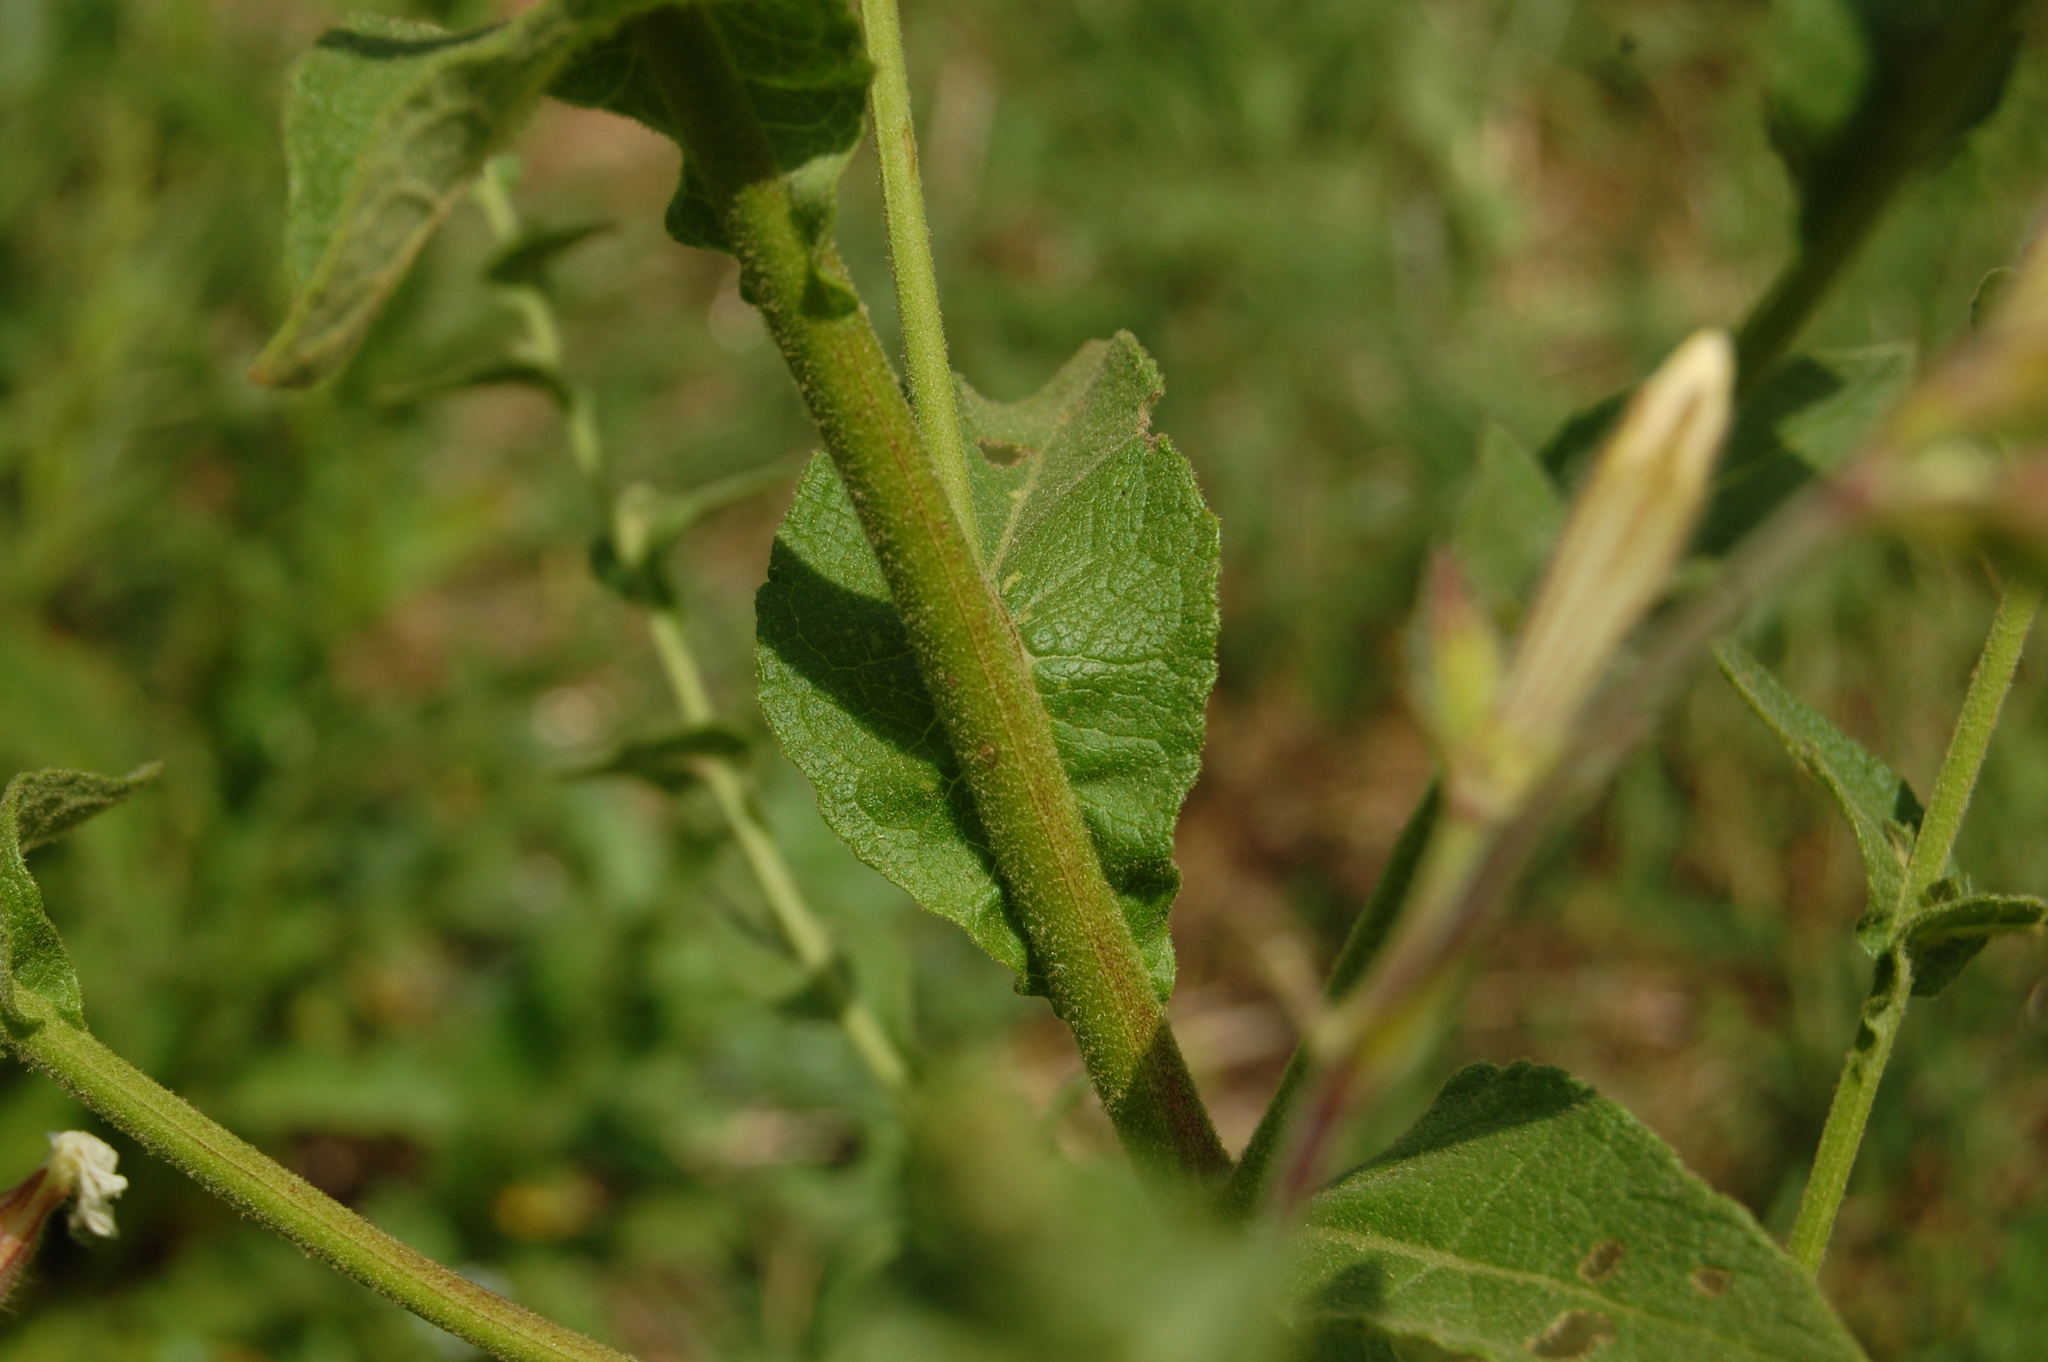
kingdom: Plantae
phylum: Tracheophyta
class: Magnoliopsida
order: Lamiales
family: Scrophulariaceae
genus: Verbascum
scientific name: Verbascum sinuatum
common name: Wavyleaf mullein
